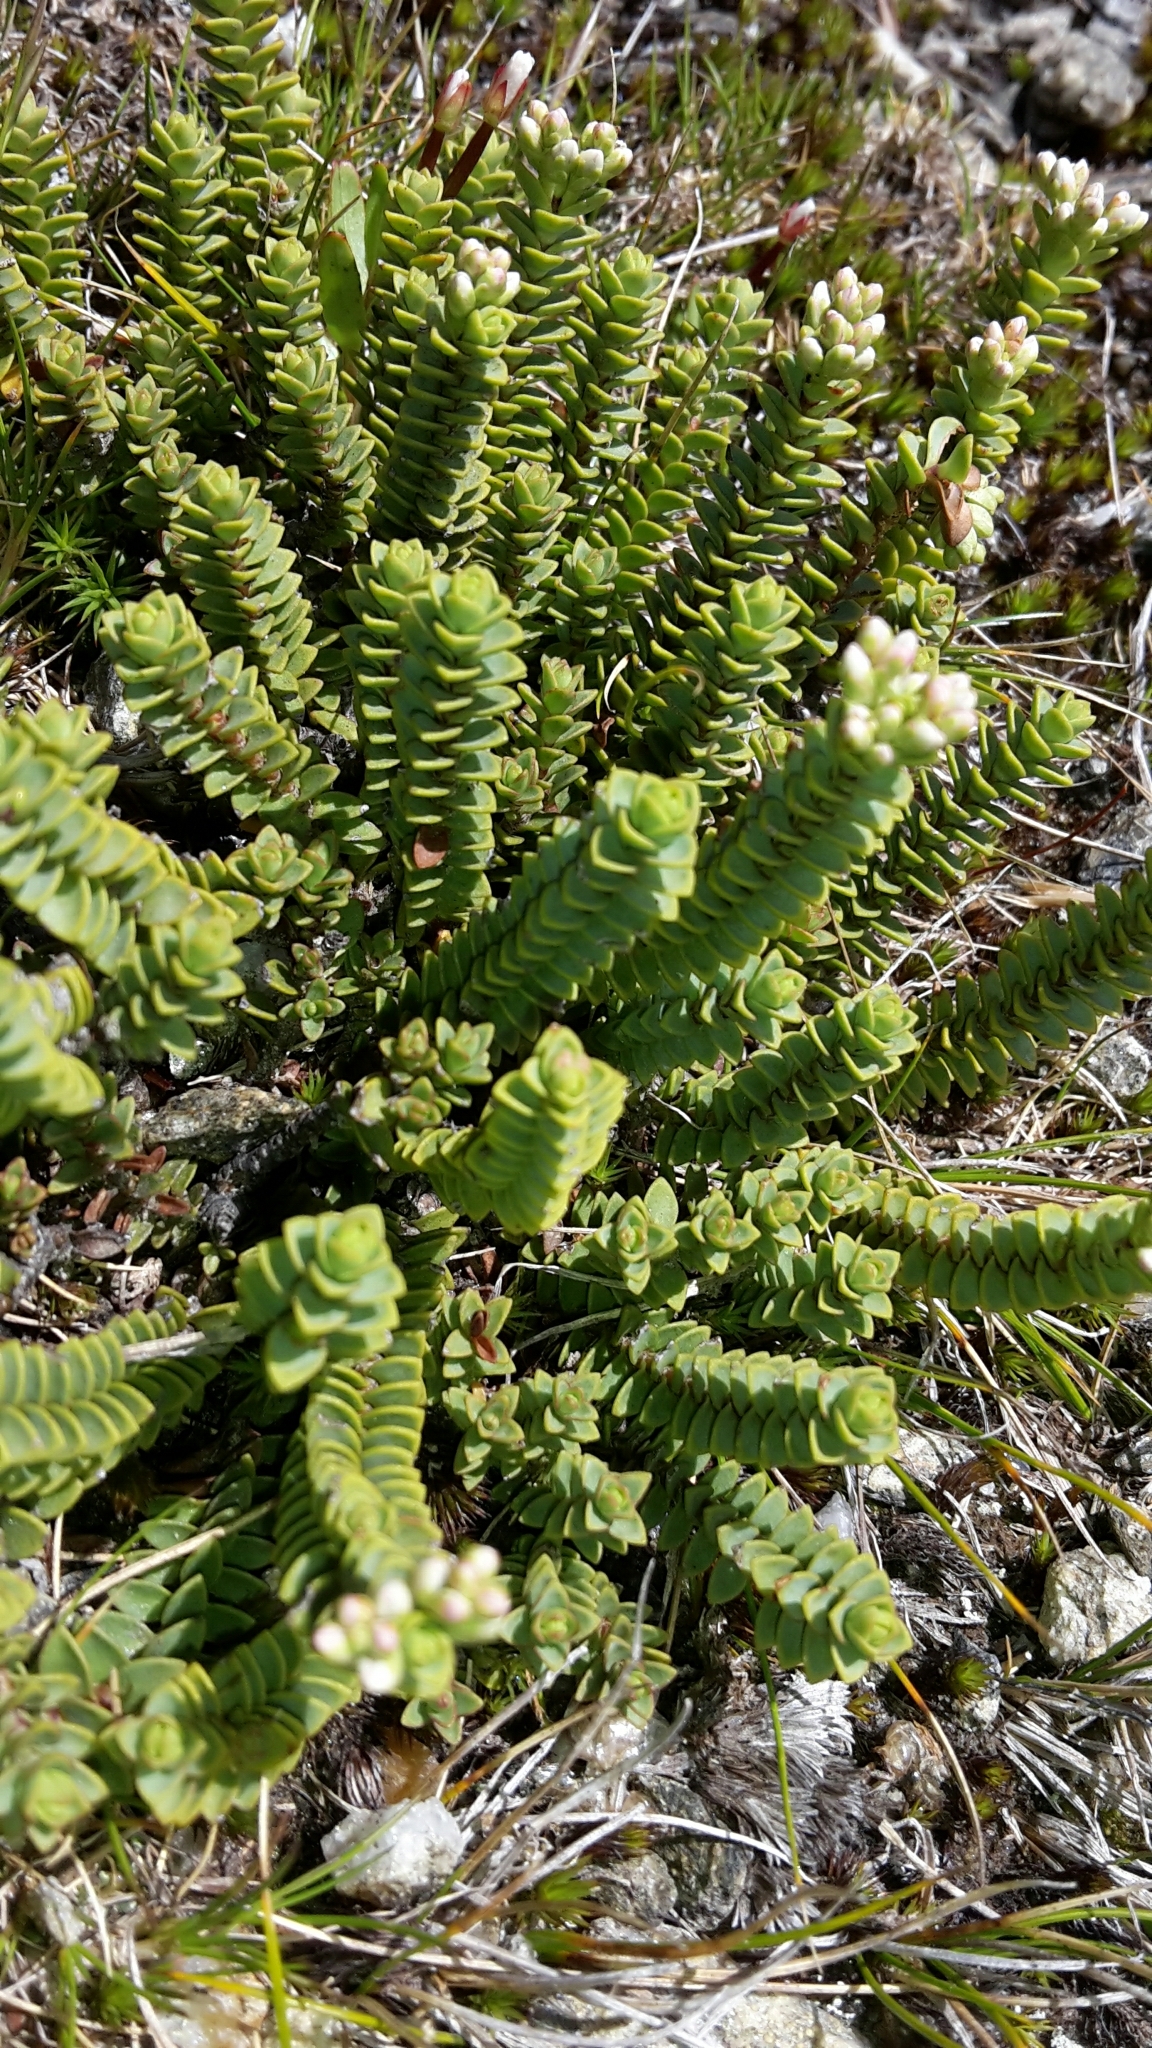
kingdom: Plantae
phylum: Tracheophyta
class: Magnoliopsida
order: Lamiales
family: Plantaginaceae
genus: Veronica
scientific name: Veronica buchananii
